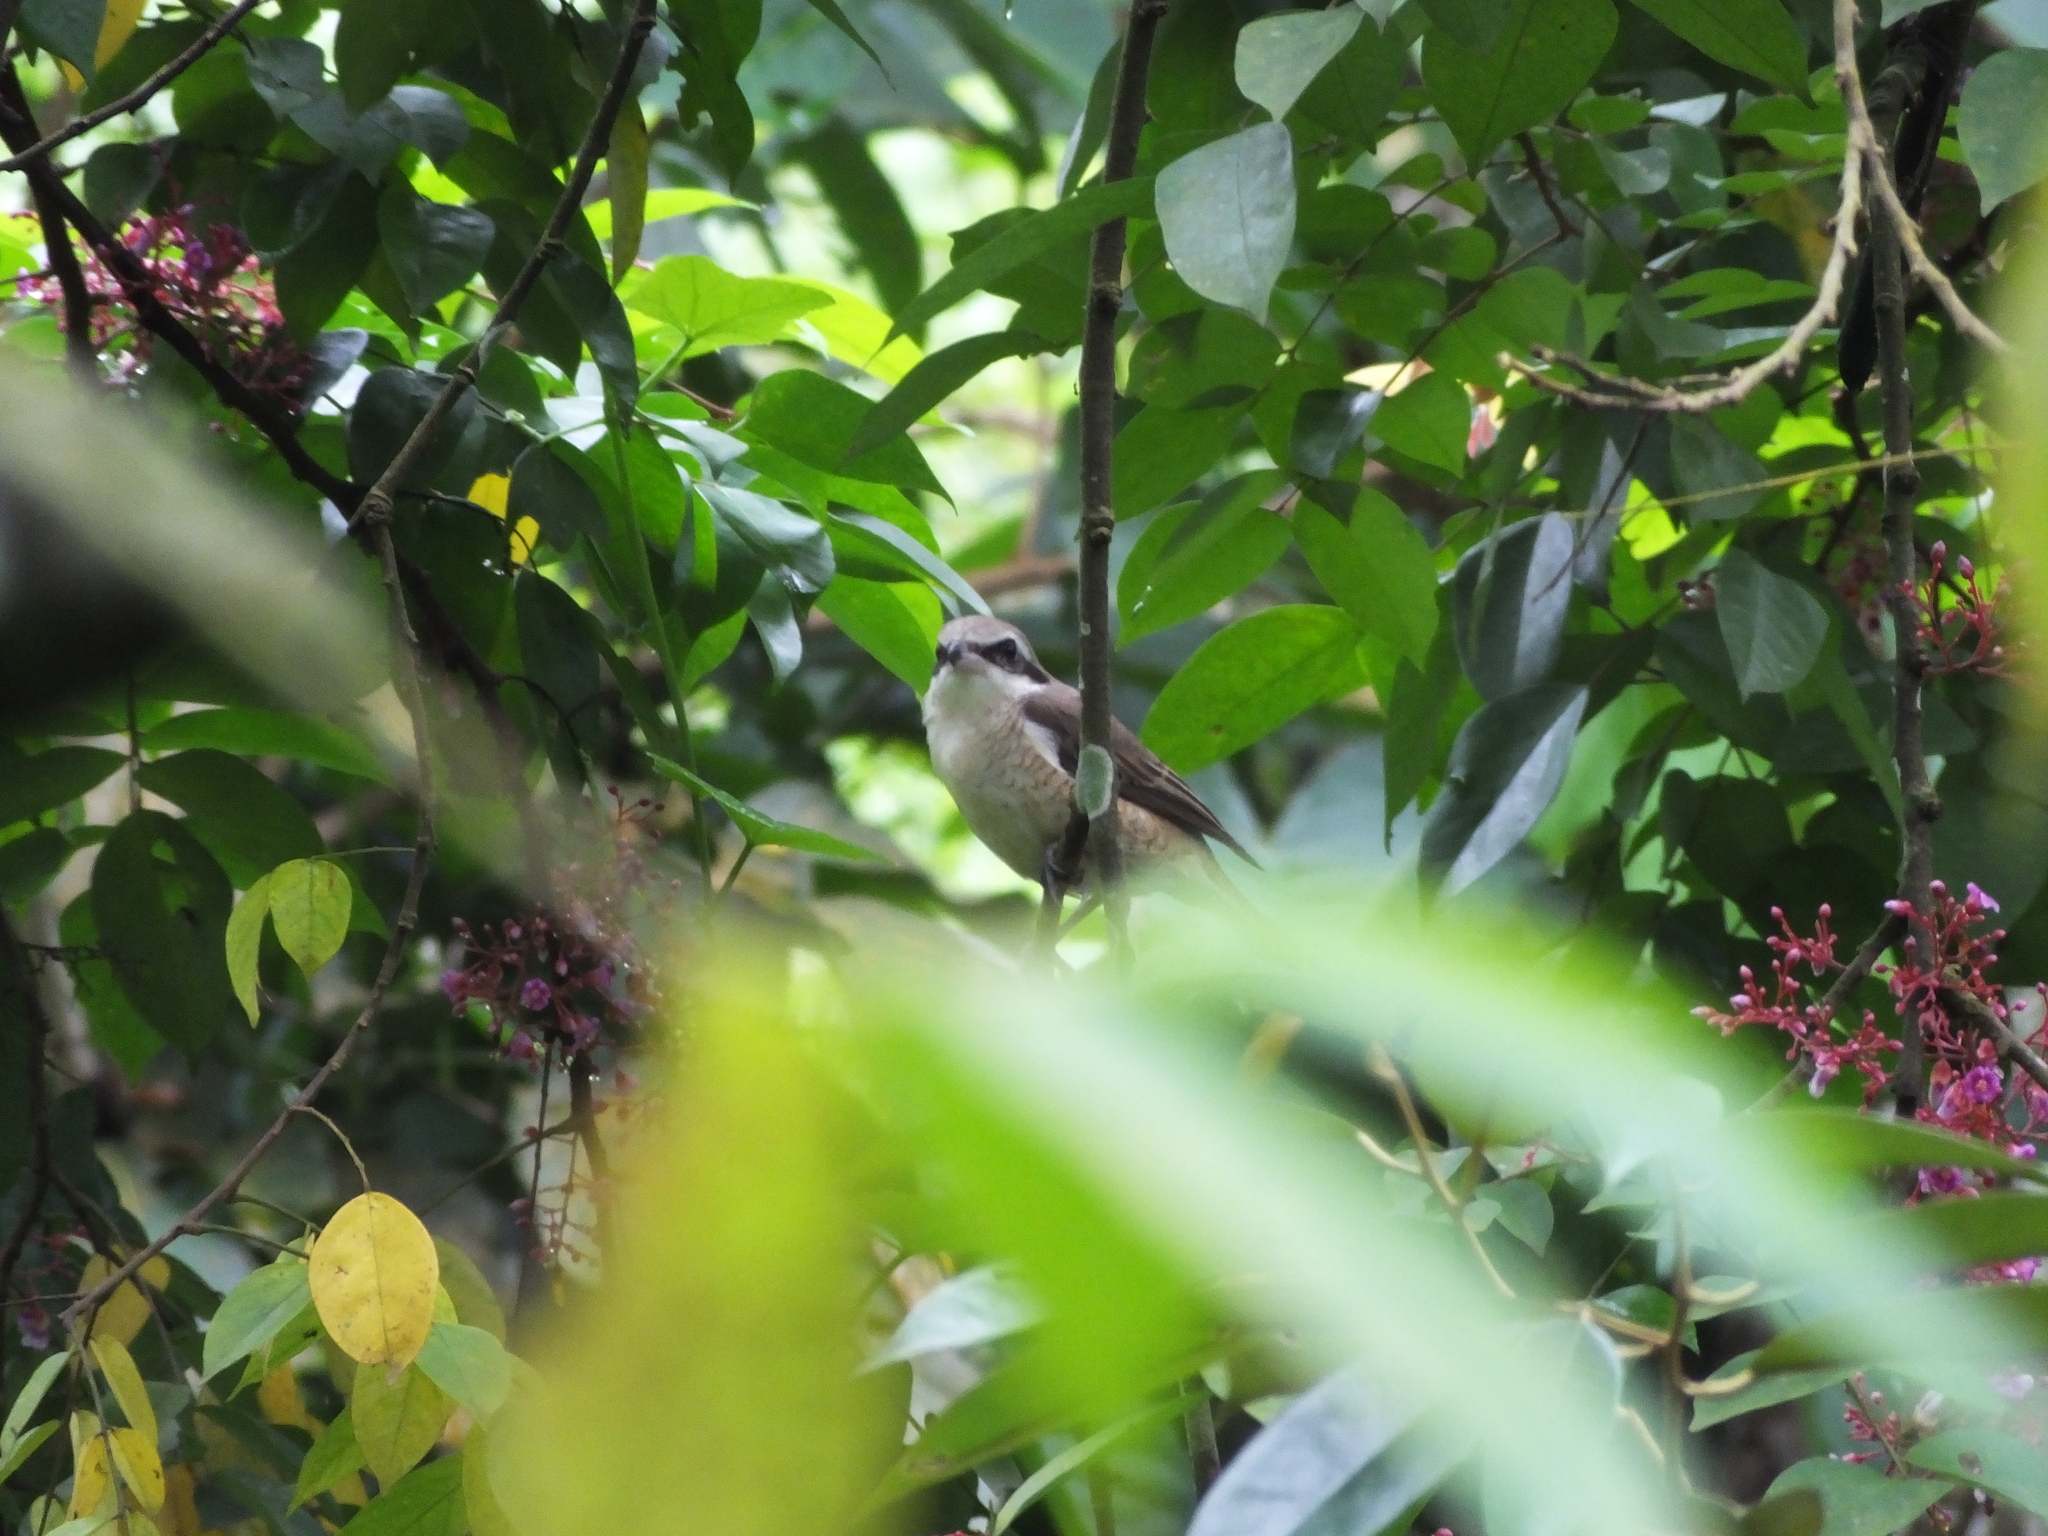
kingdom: Animalia
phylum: Chordata
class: Aves
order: Passeriformes
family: Laniidae
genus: Lanius
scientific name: Lanius cristatus
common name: Brown shrike
